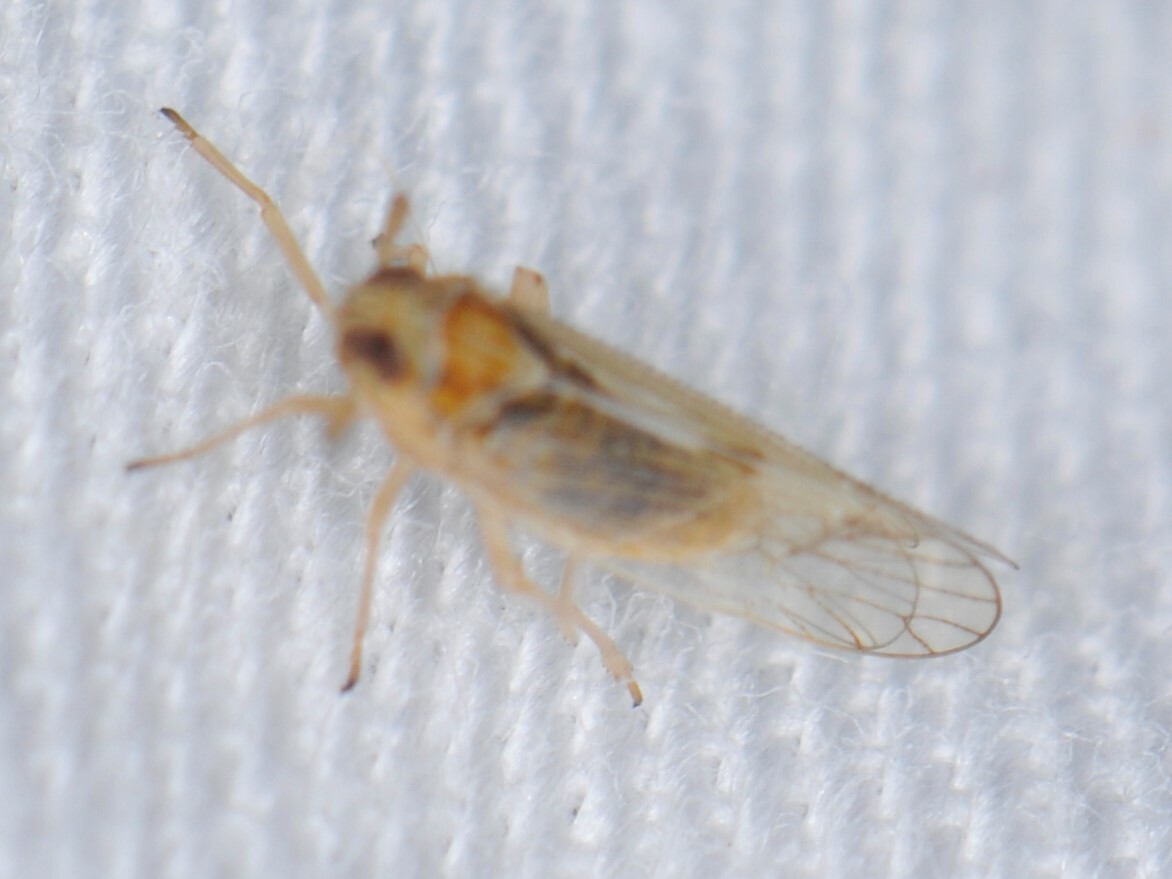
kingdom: Animalia
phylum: Arthropoda
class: Insecta
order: Hemiptera
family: Delphacidae
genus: Chionomus
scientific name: Chionomus
